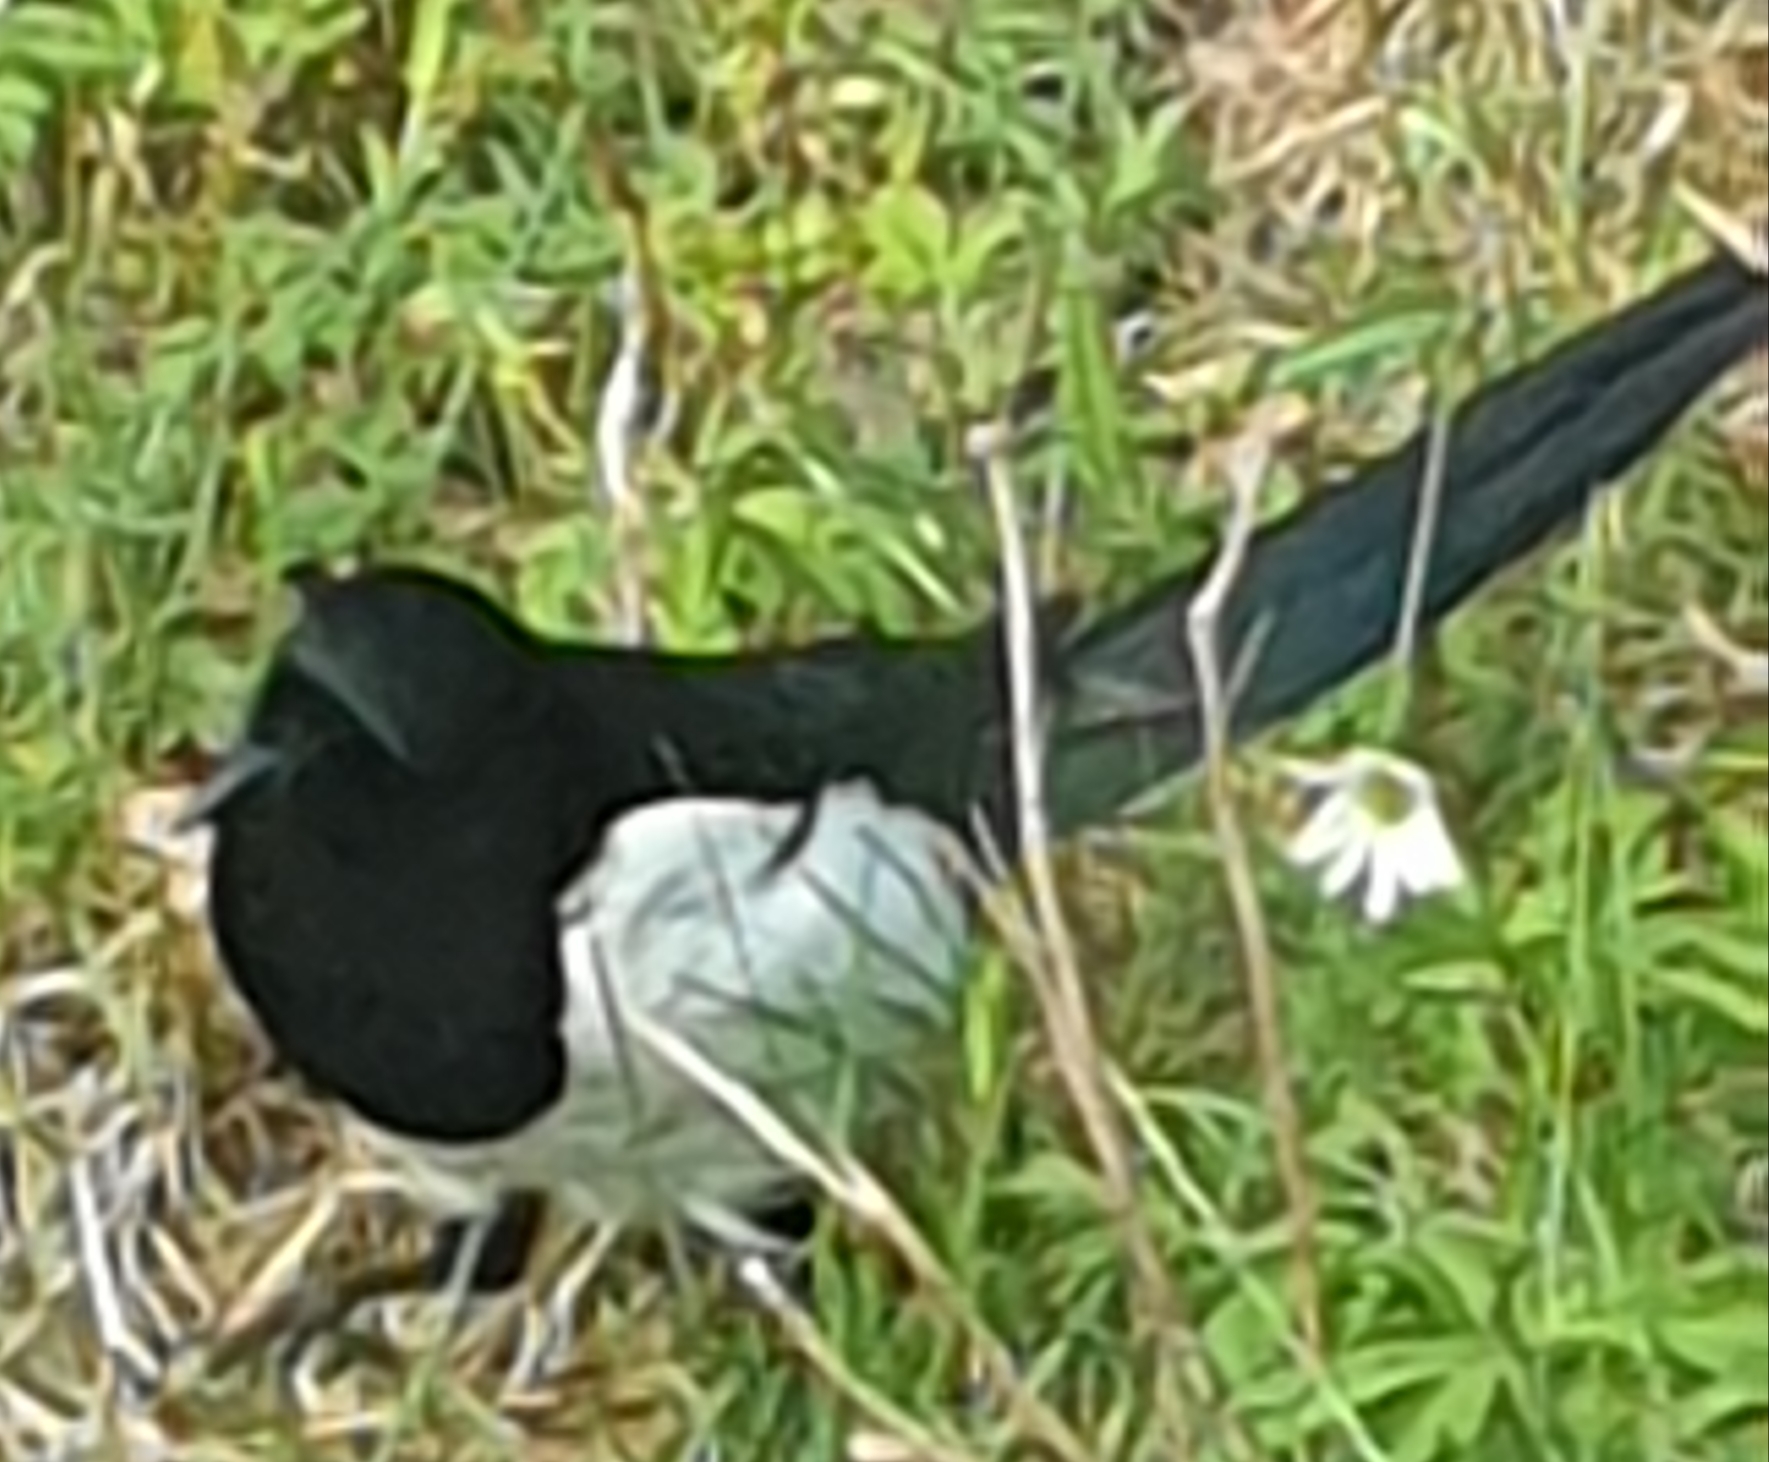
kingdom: Animalia
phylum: Chordata
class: Aves
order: Passeriformes
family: Corvidae
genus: Pica
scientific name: Pica pica
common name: Eurasian magpie
